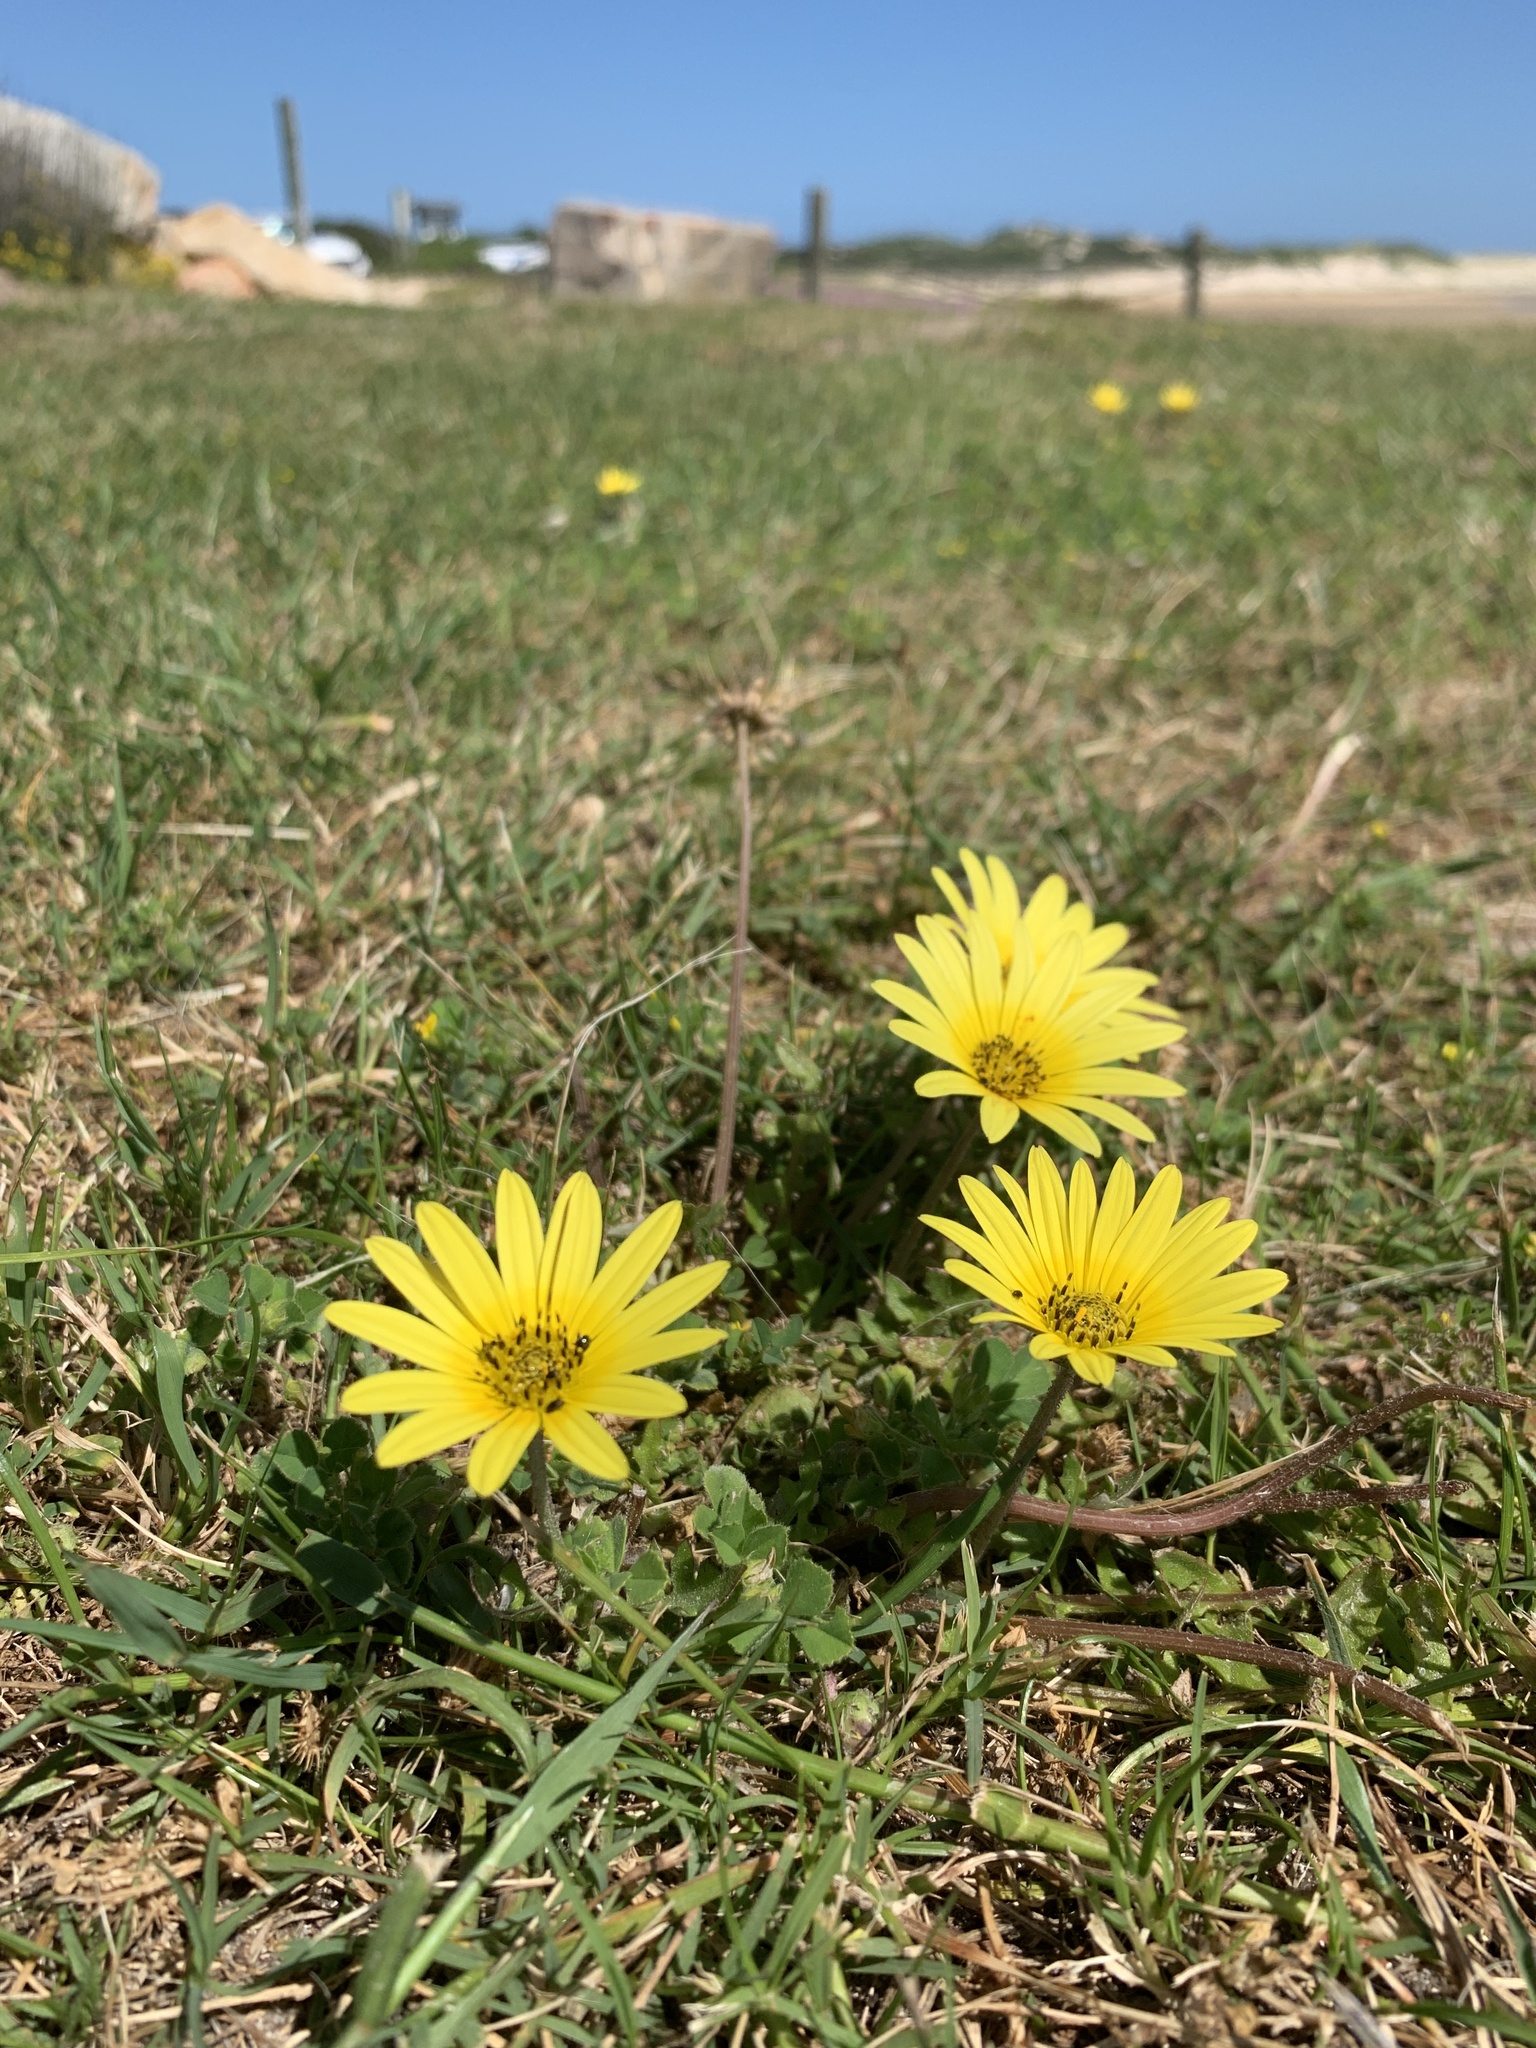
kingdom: Plantae
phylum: Tracheophyta
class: Magnoliopsida
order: Asterales
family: Asteraceae
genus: Arctotheca
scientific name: Arctotheca calendula
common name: Capeweed
